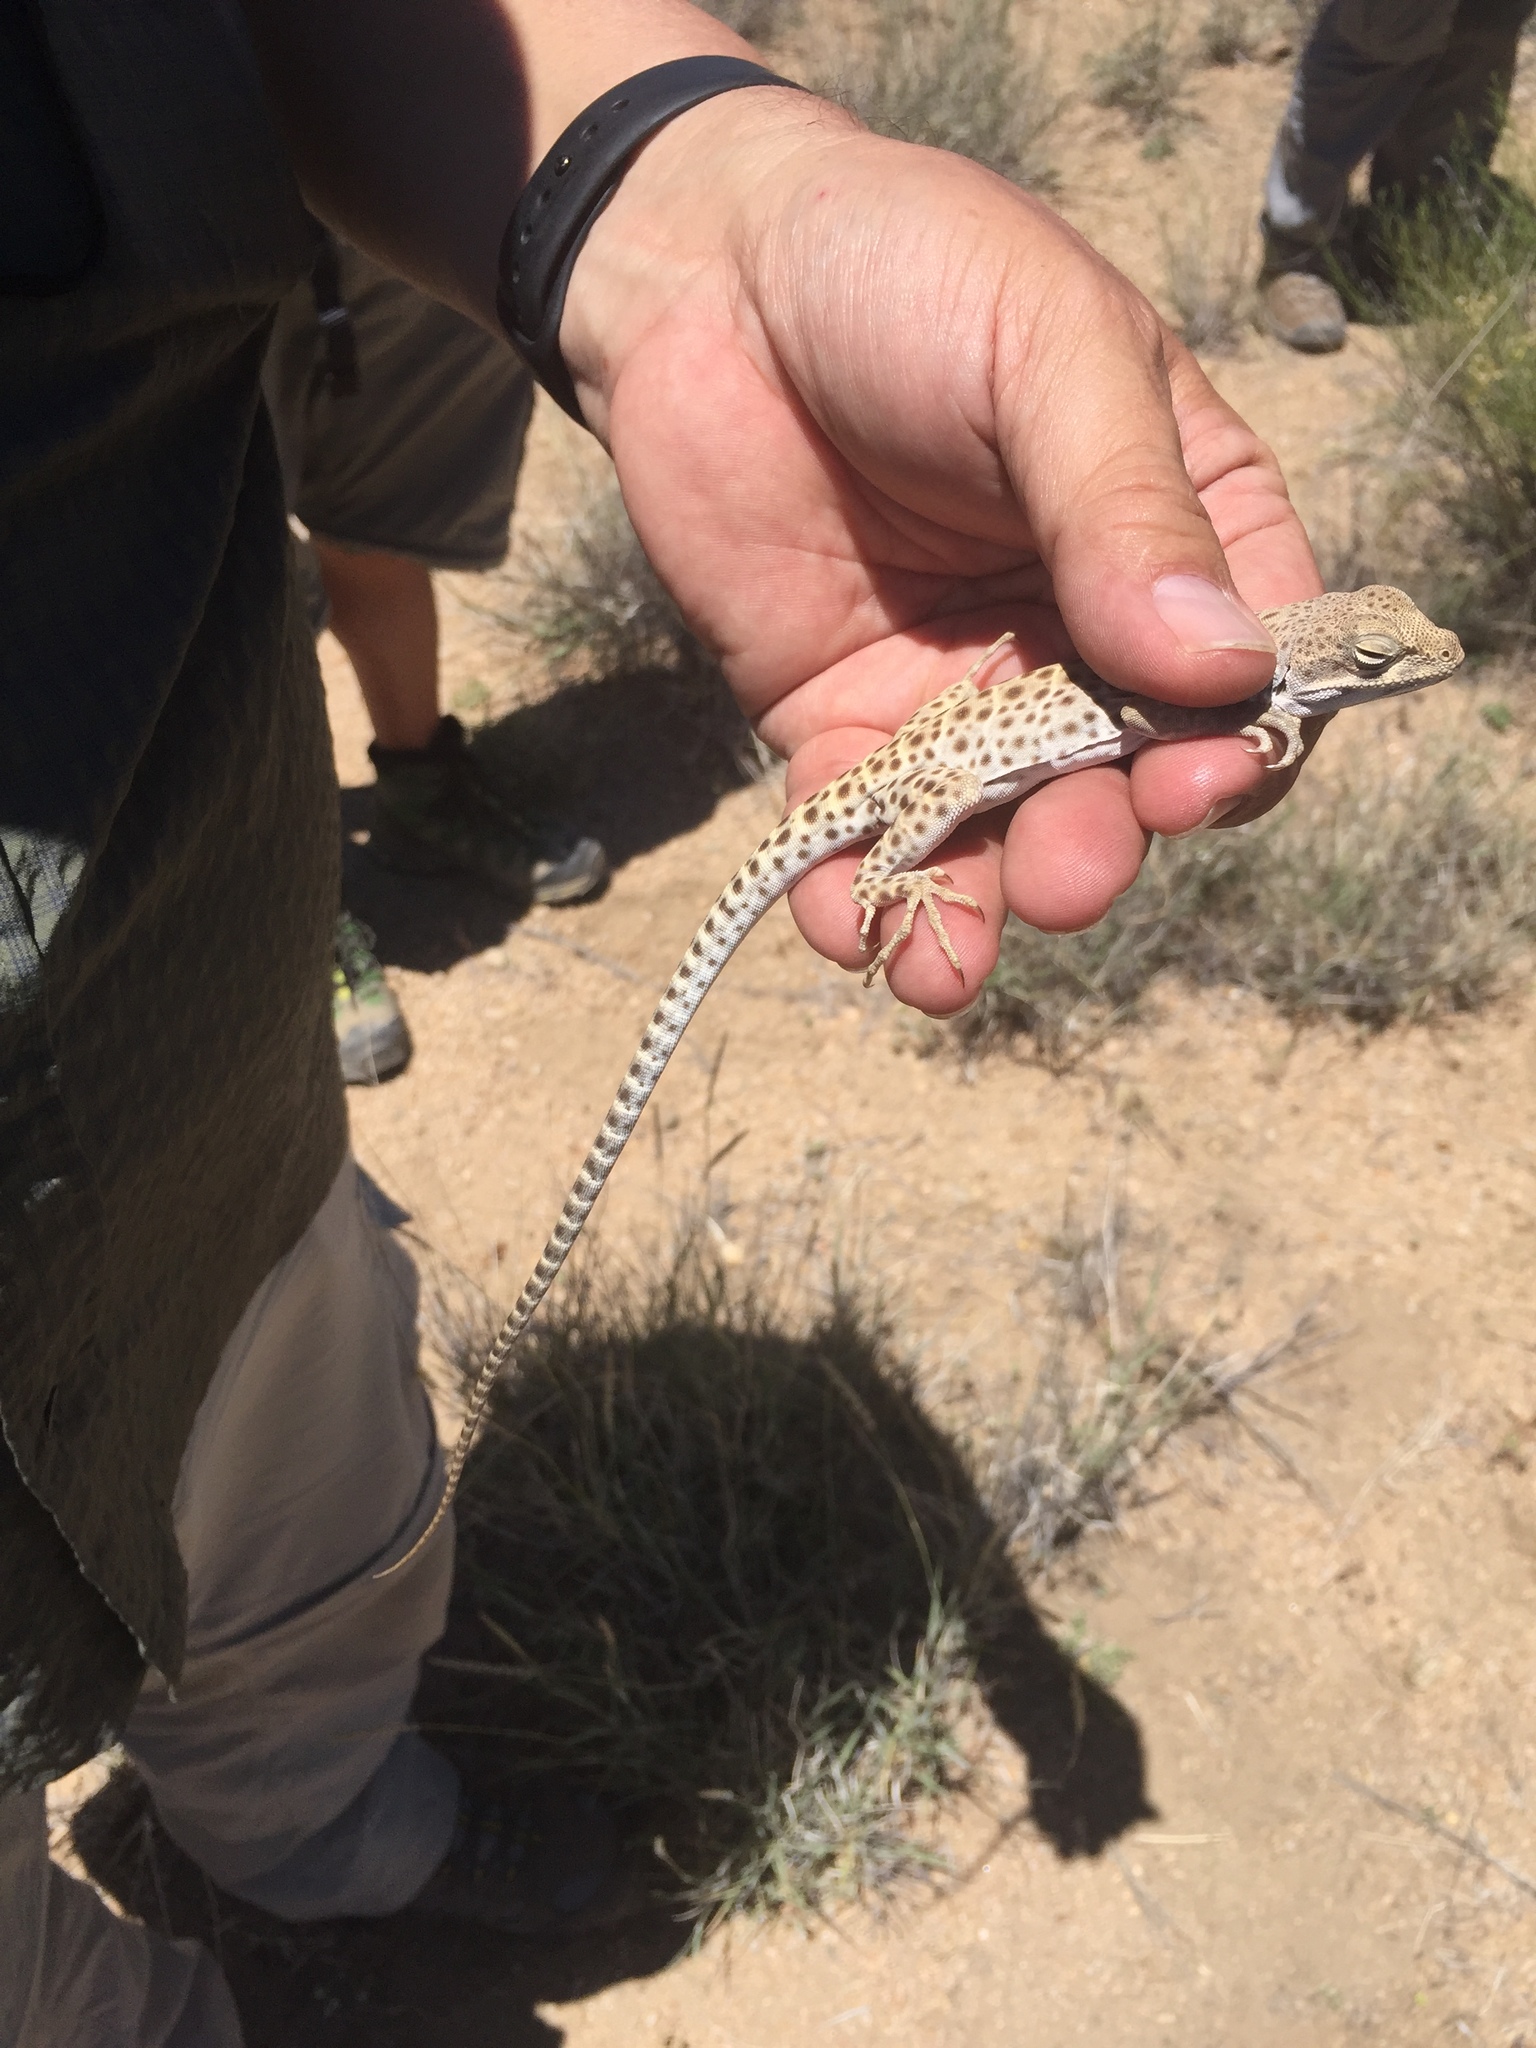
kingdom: Animalia
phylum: Chordata
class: Squamata
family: Crotaphytidae
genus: Gambelia
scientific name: Gambelia wislizenii
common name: Longnose leopard lizard
